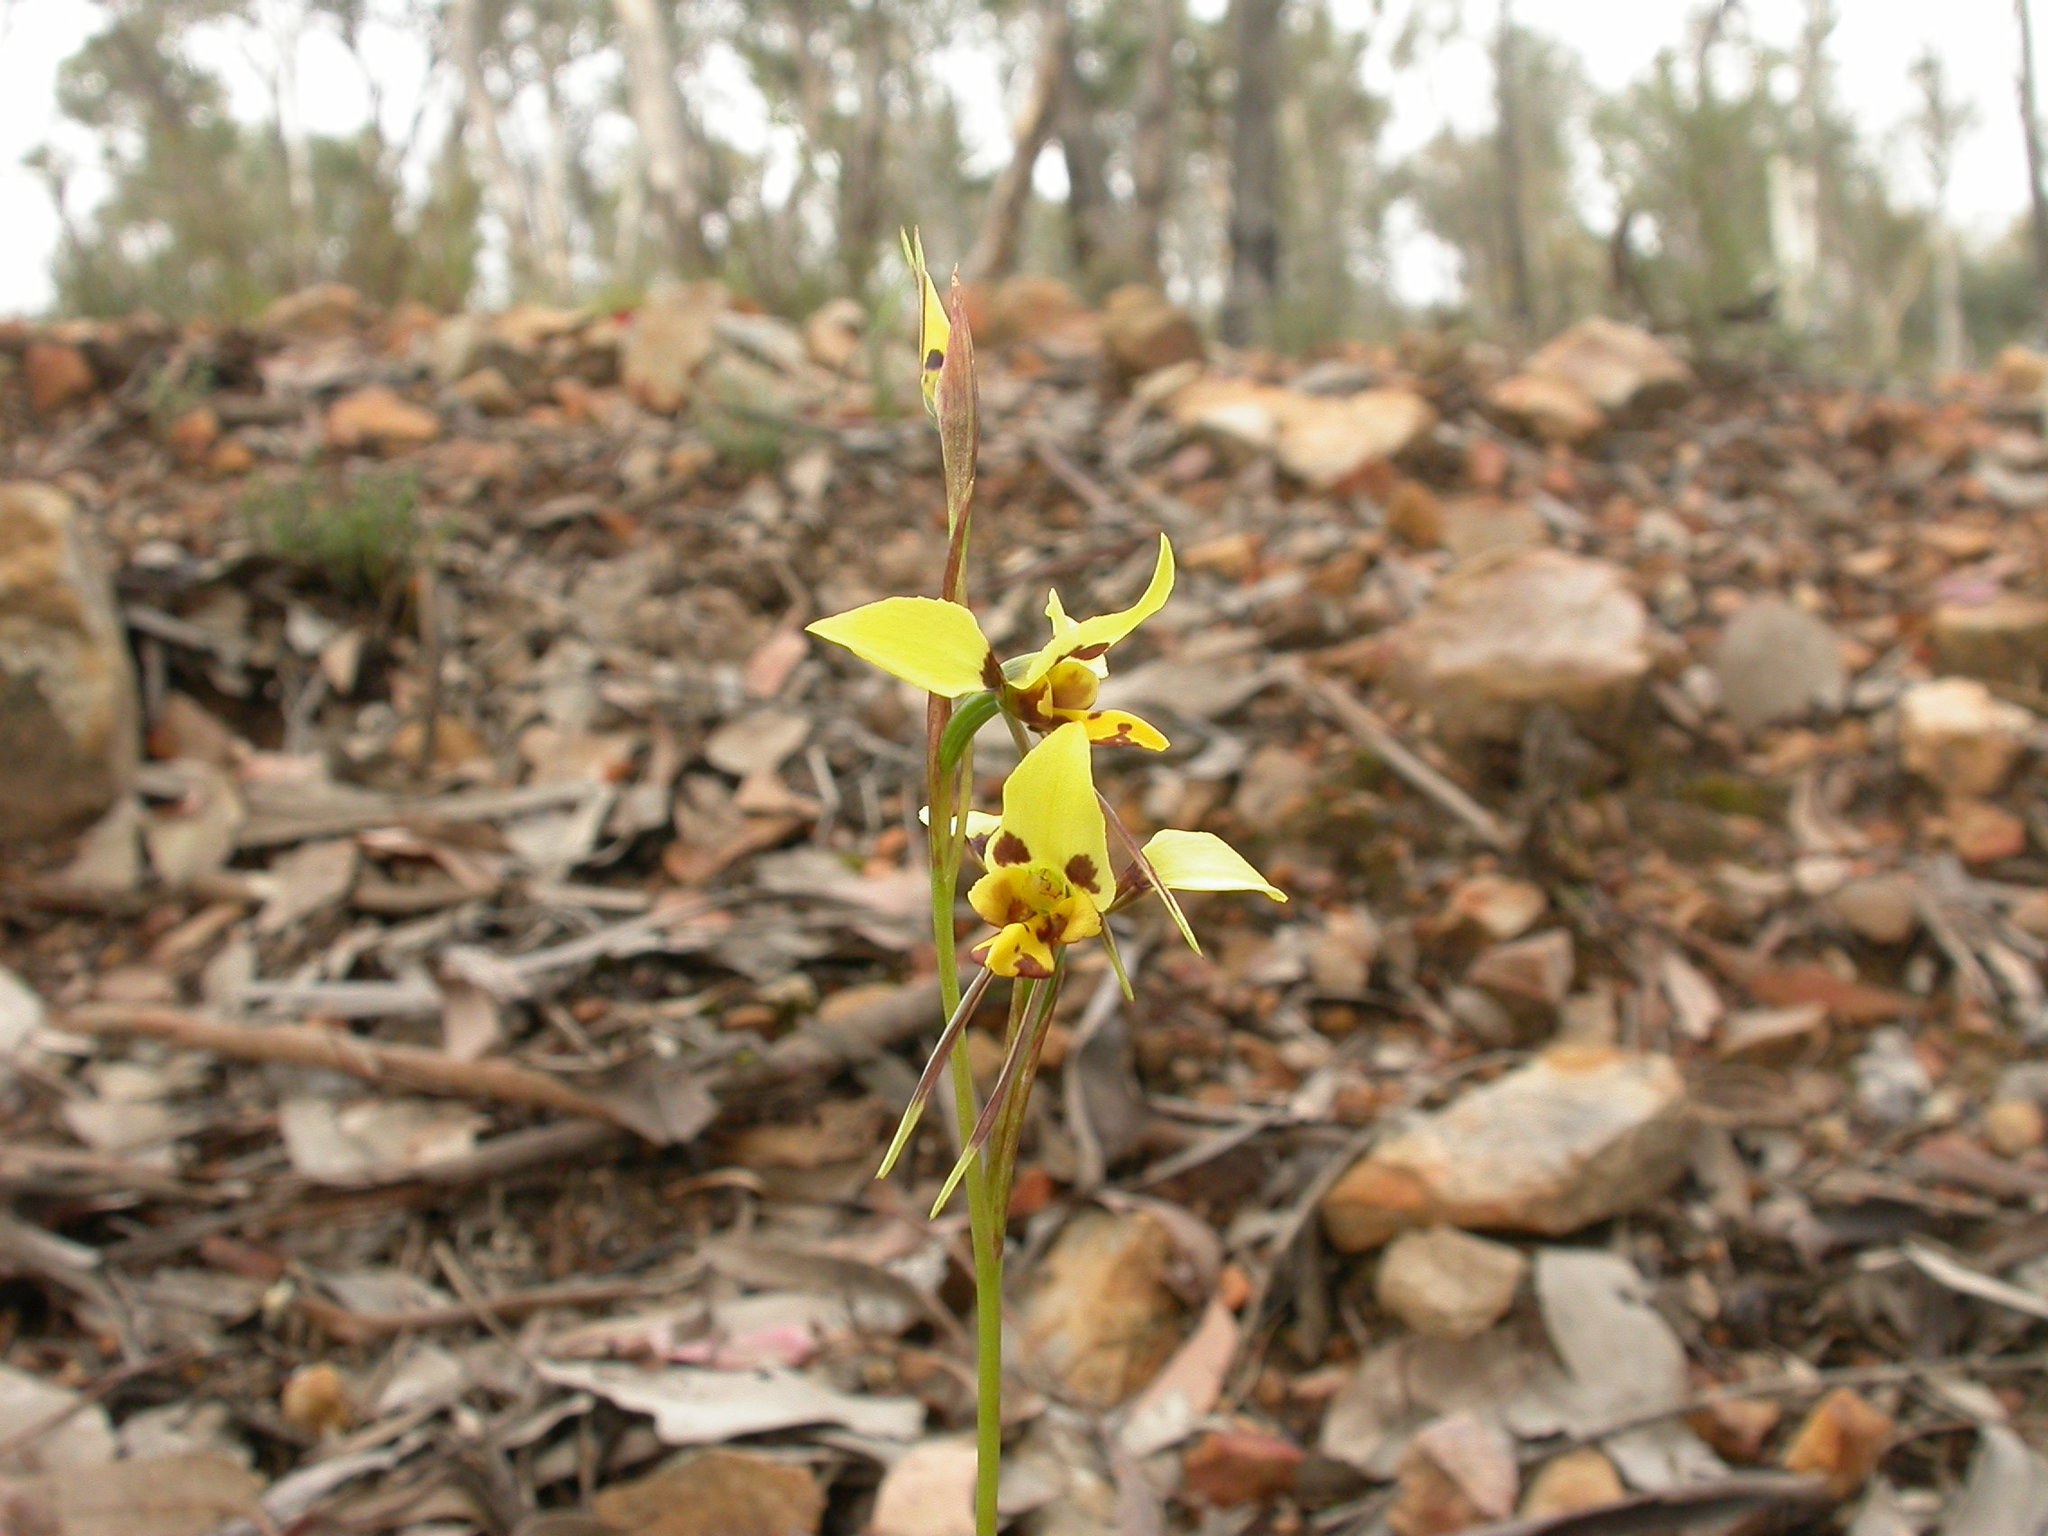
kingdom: Plantae
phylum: Tracheophyta
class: Liliopsida
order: Asparagales
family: Orchidaceae
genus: Diuris
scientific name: Diuris sulphurea
